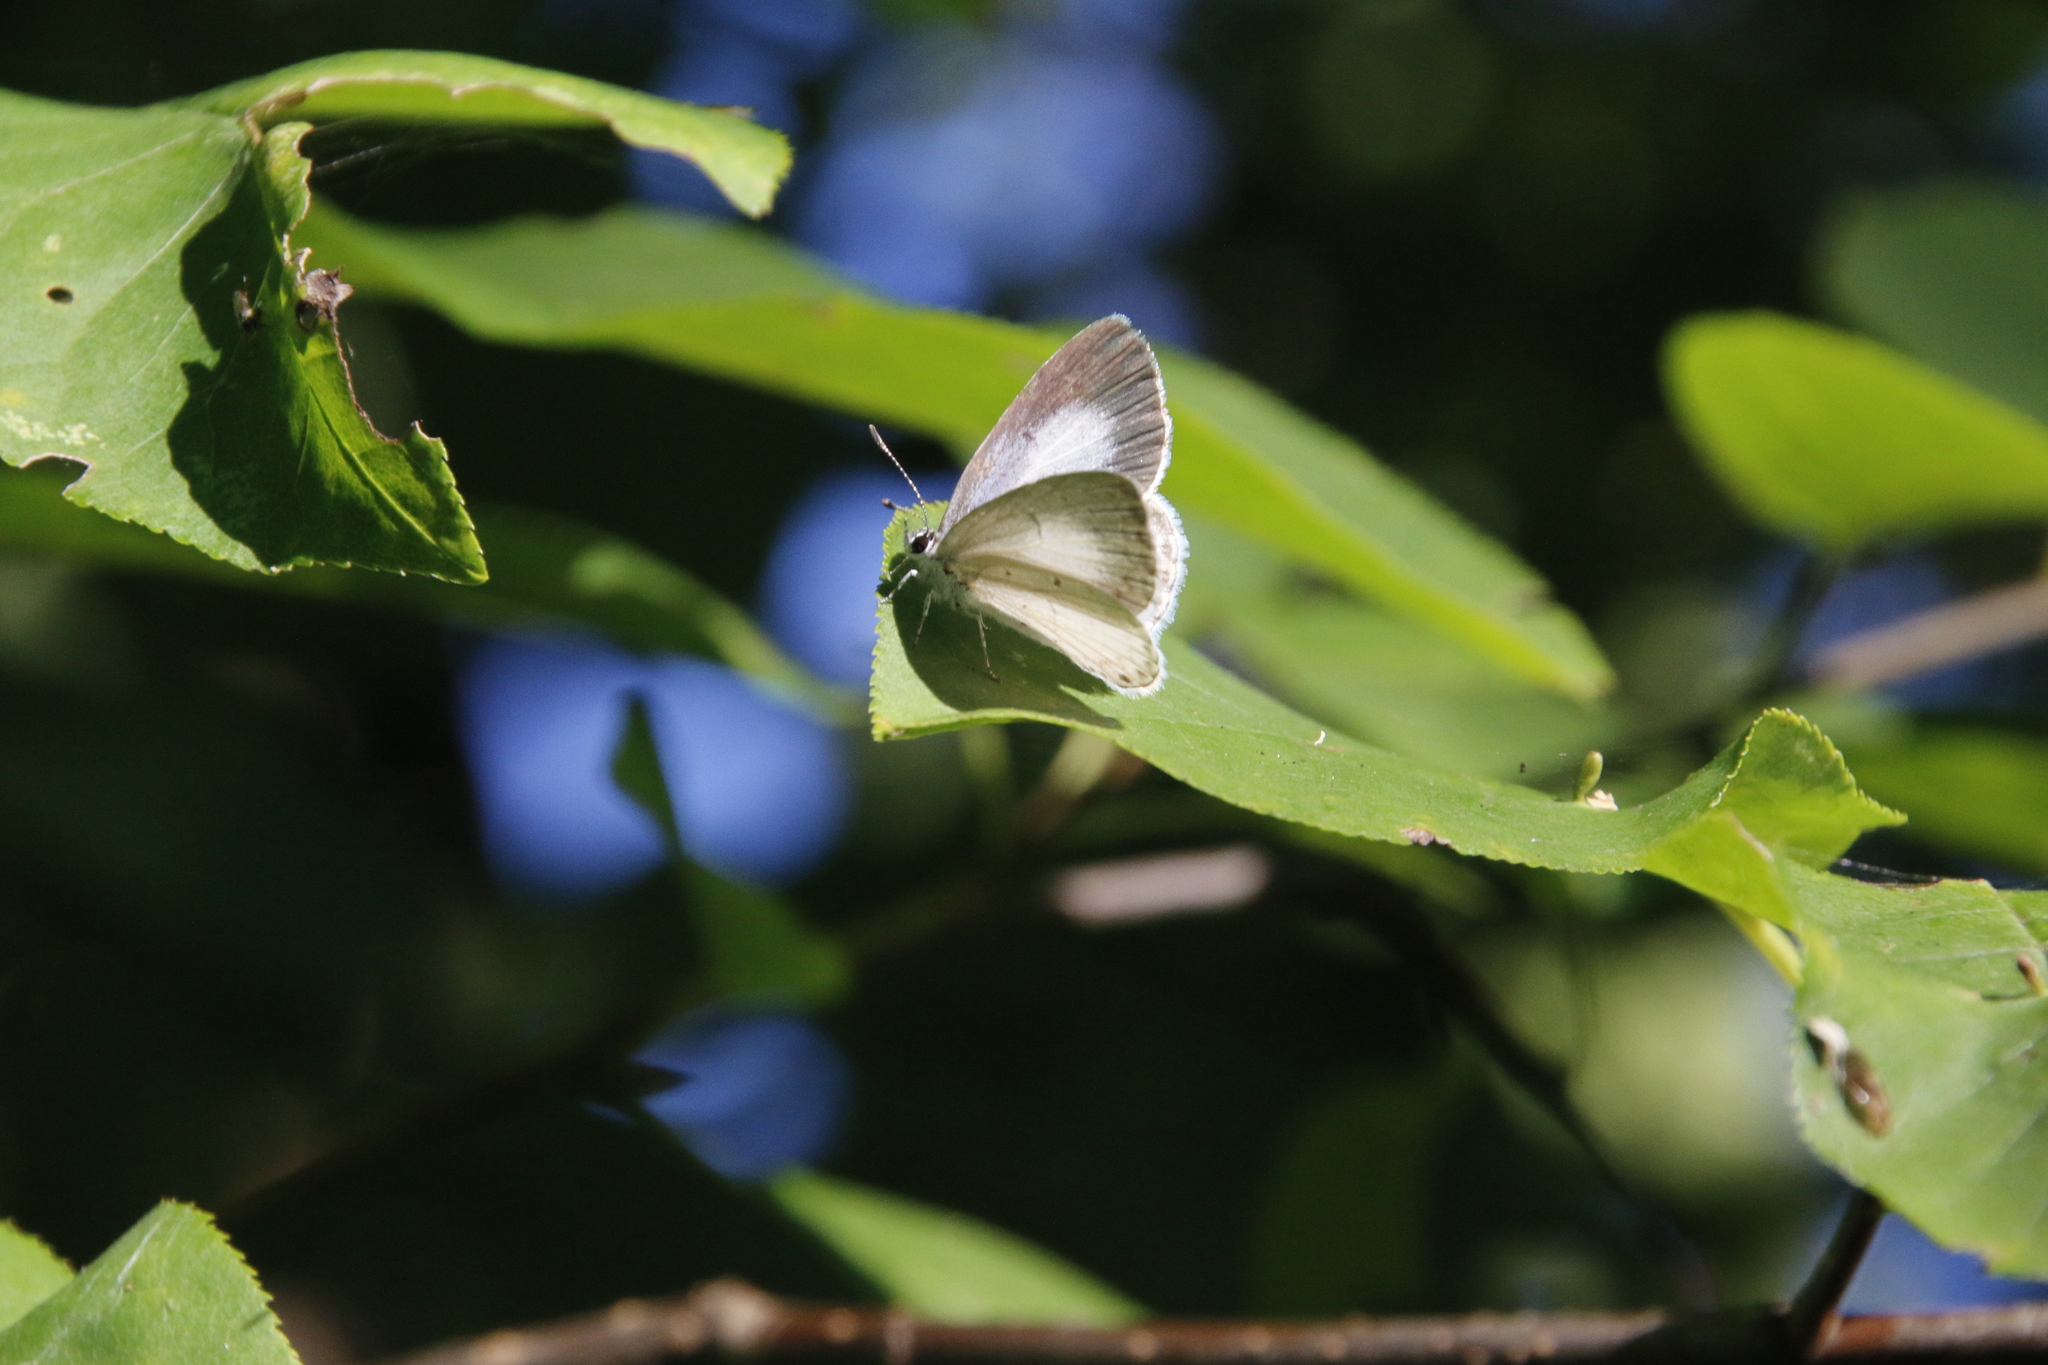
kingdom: Animalia
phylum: Arthropoda
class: Insecta
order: Lepidoptera
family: Lycaenidae
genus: Cyaniris
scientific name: Cyaniris neglecta
